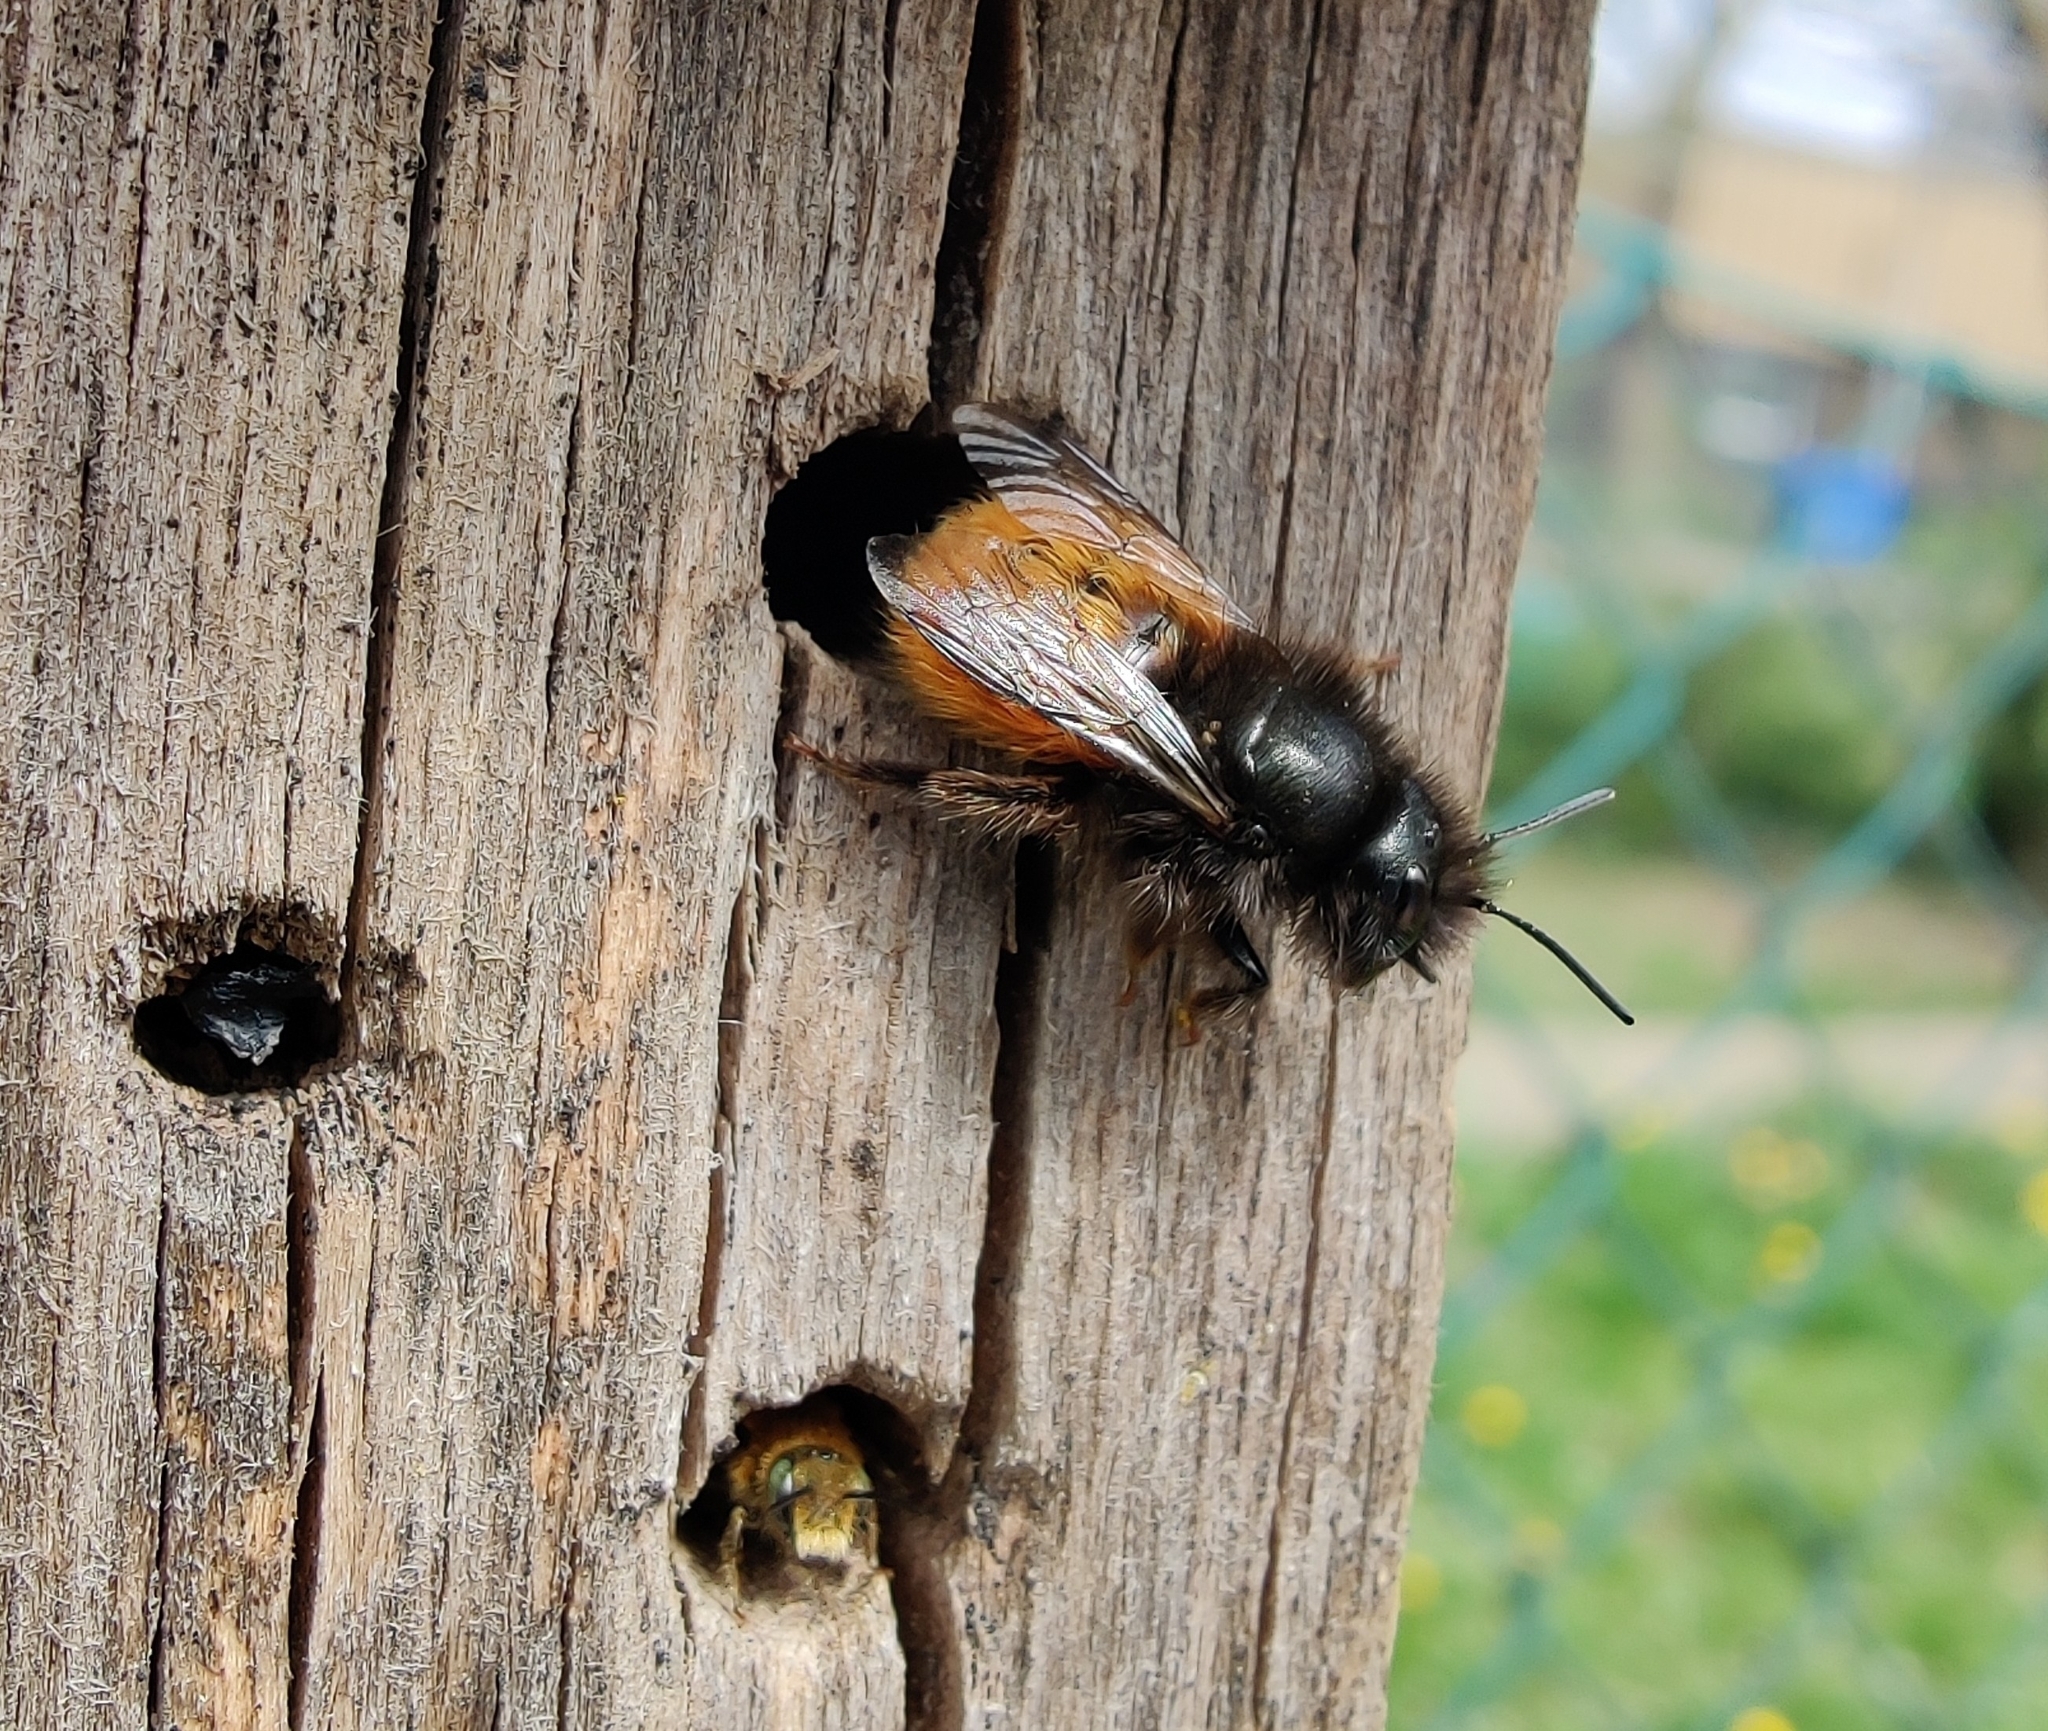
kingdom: Animalia
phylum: Arthropoda
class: Insecta
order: Hymenoptera
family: Megachilidae
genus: Osmia
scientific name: Osmia cornuta
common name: Mason bee
